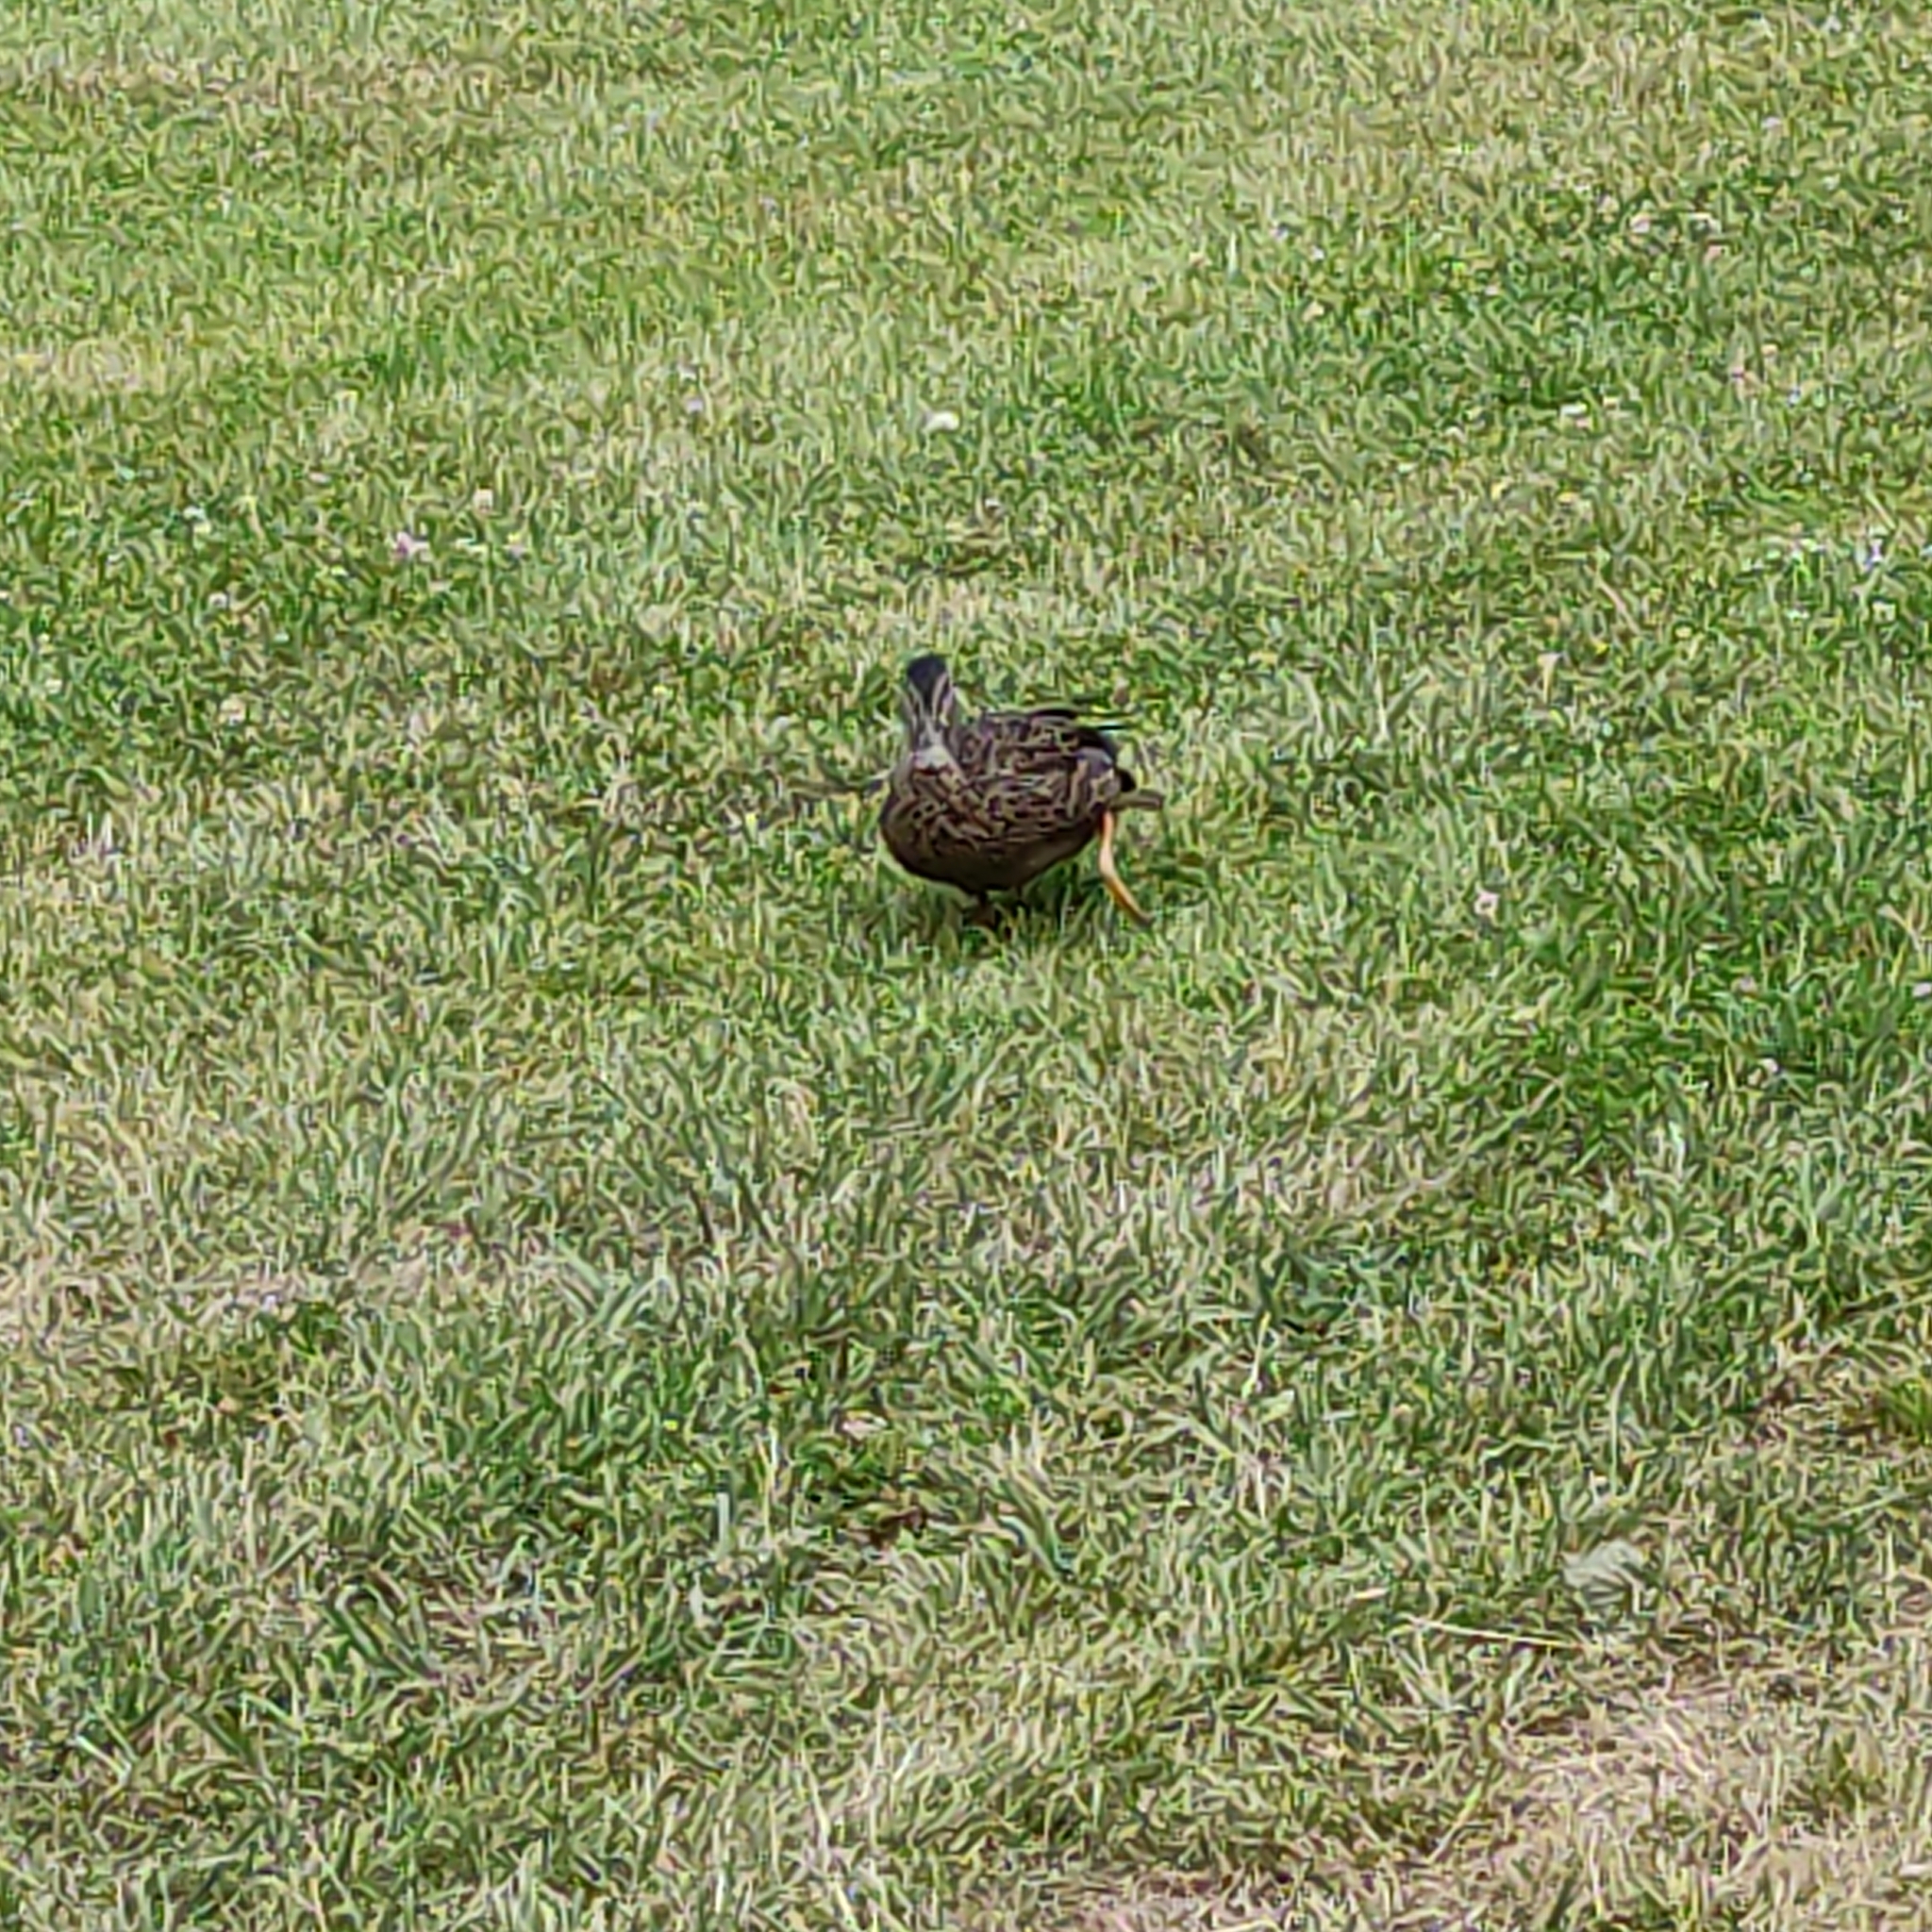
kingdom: Animalia
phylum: Chordata
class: Aves
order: Anseriformes
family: Anatidae
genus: Anas
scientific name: Anas
